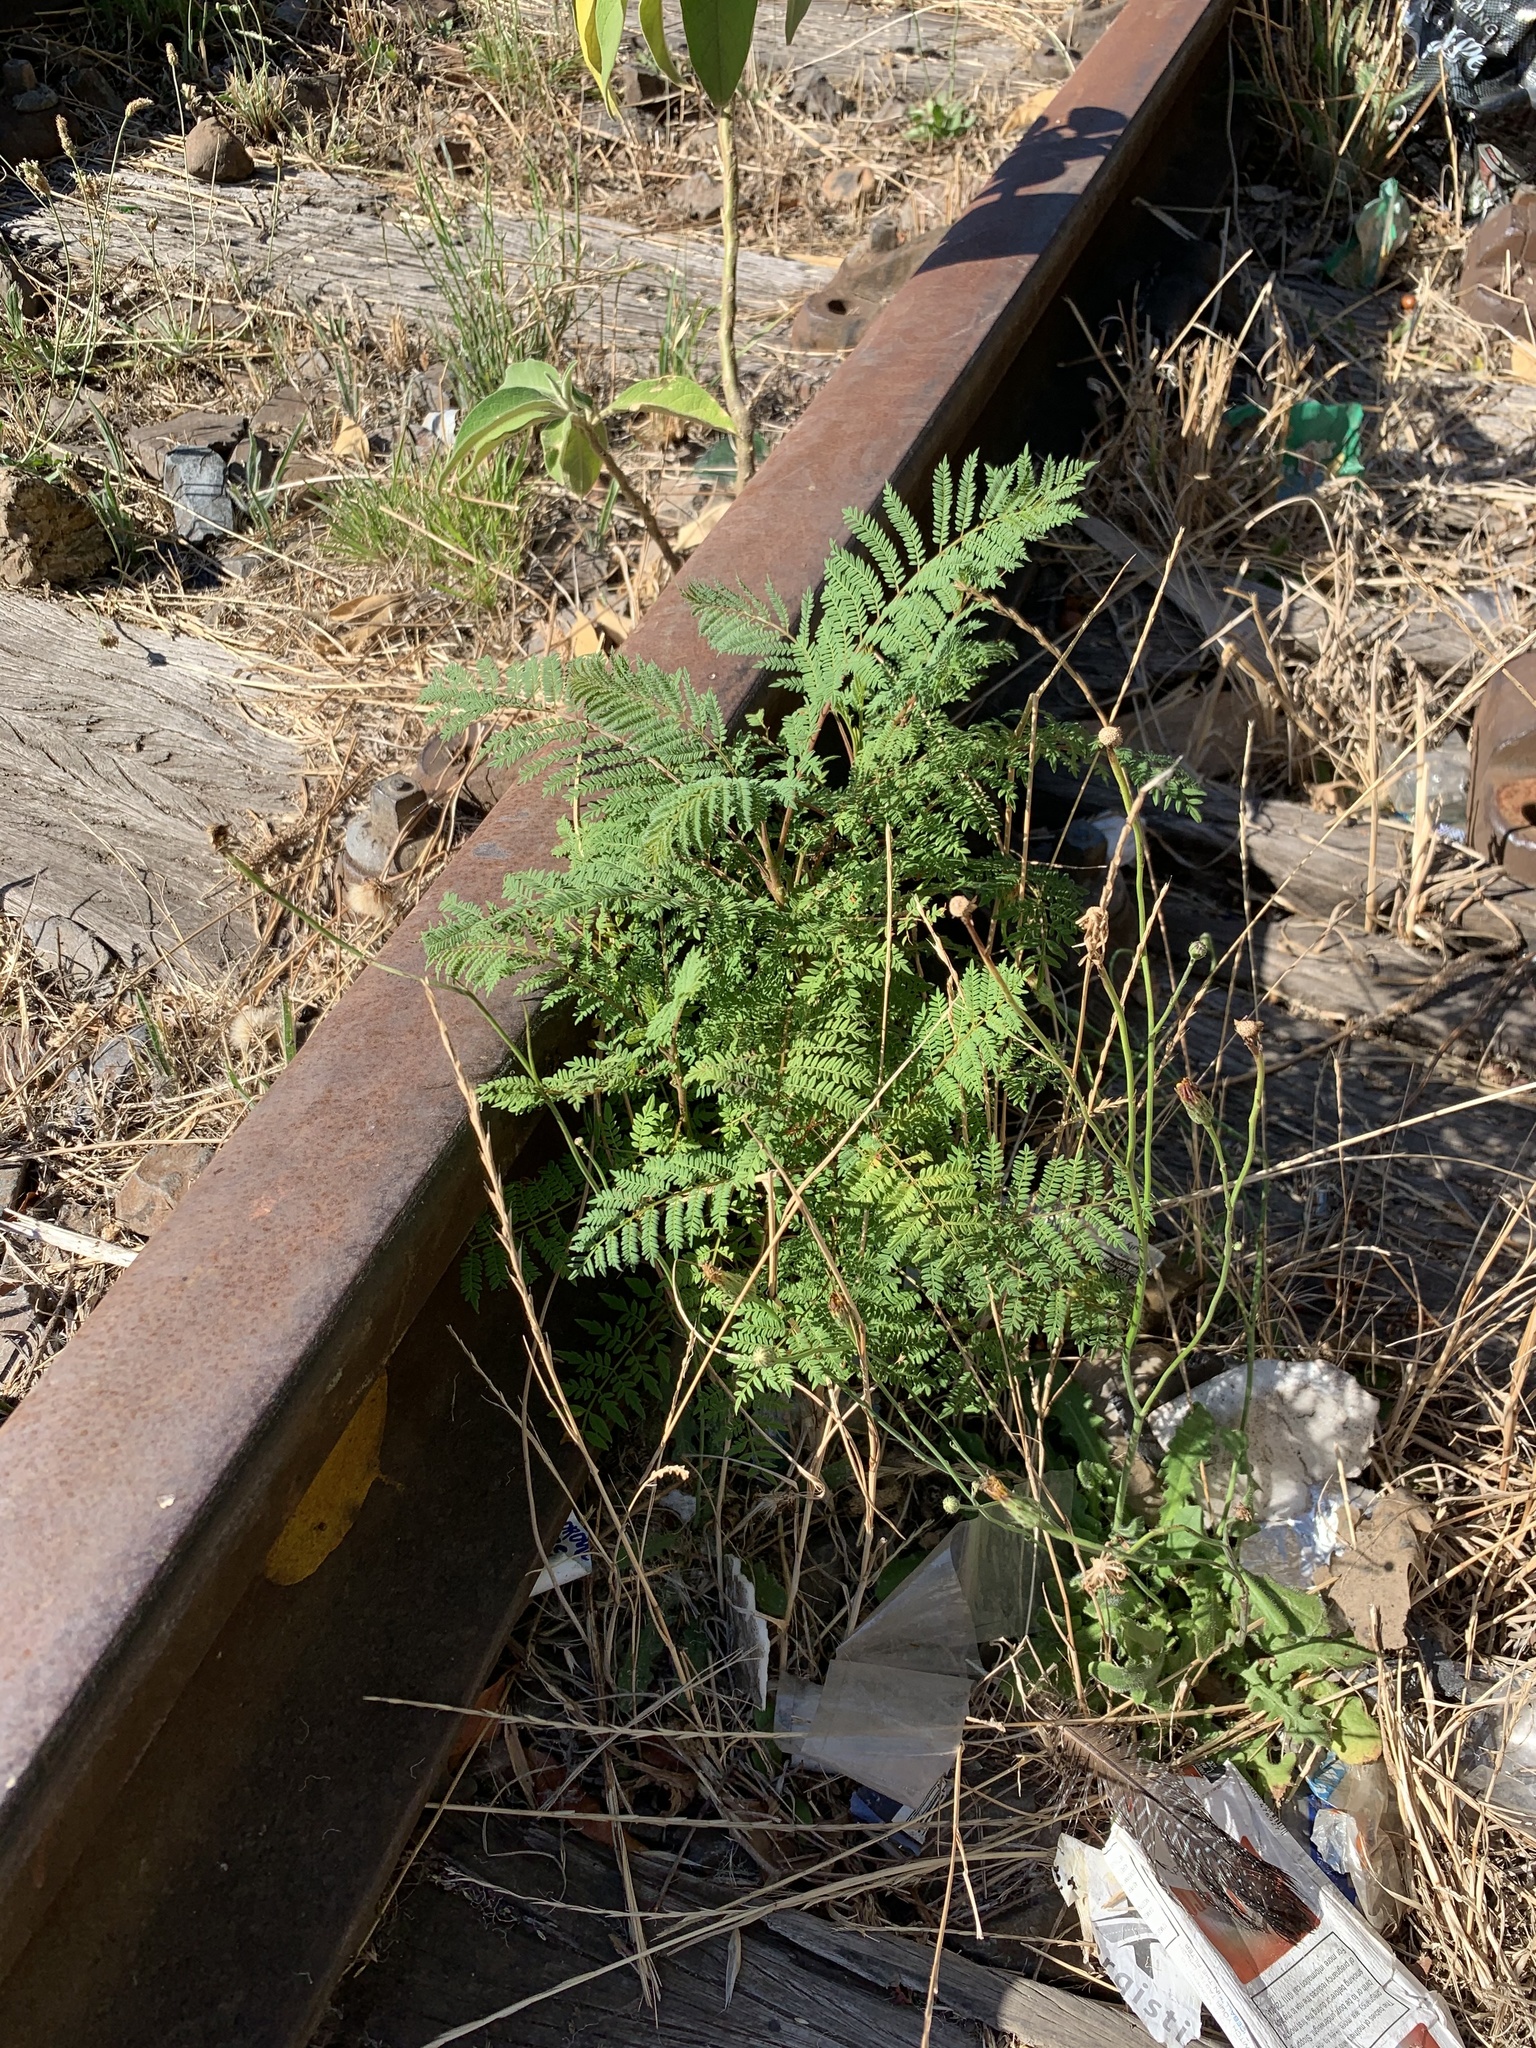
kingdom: Plantae
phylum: Tracheophyta
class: Magnoliopsida
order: Lamiales
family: Bignoniaceae
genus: Jacaranda
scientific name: Jacaranda mimosifolia
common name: Black poui
